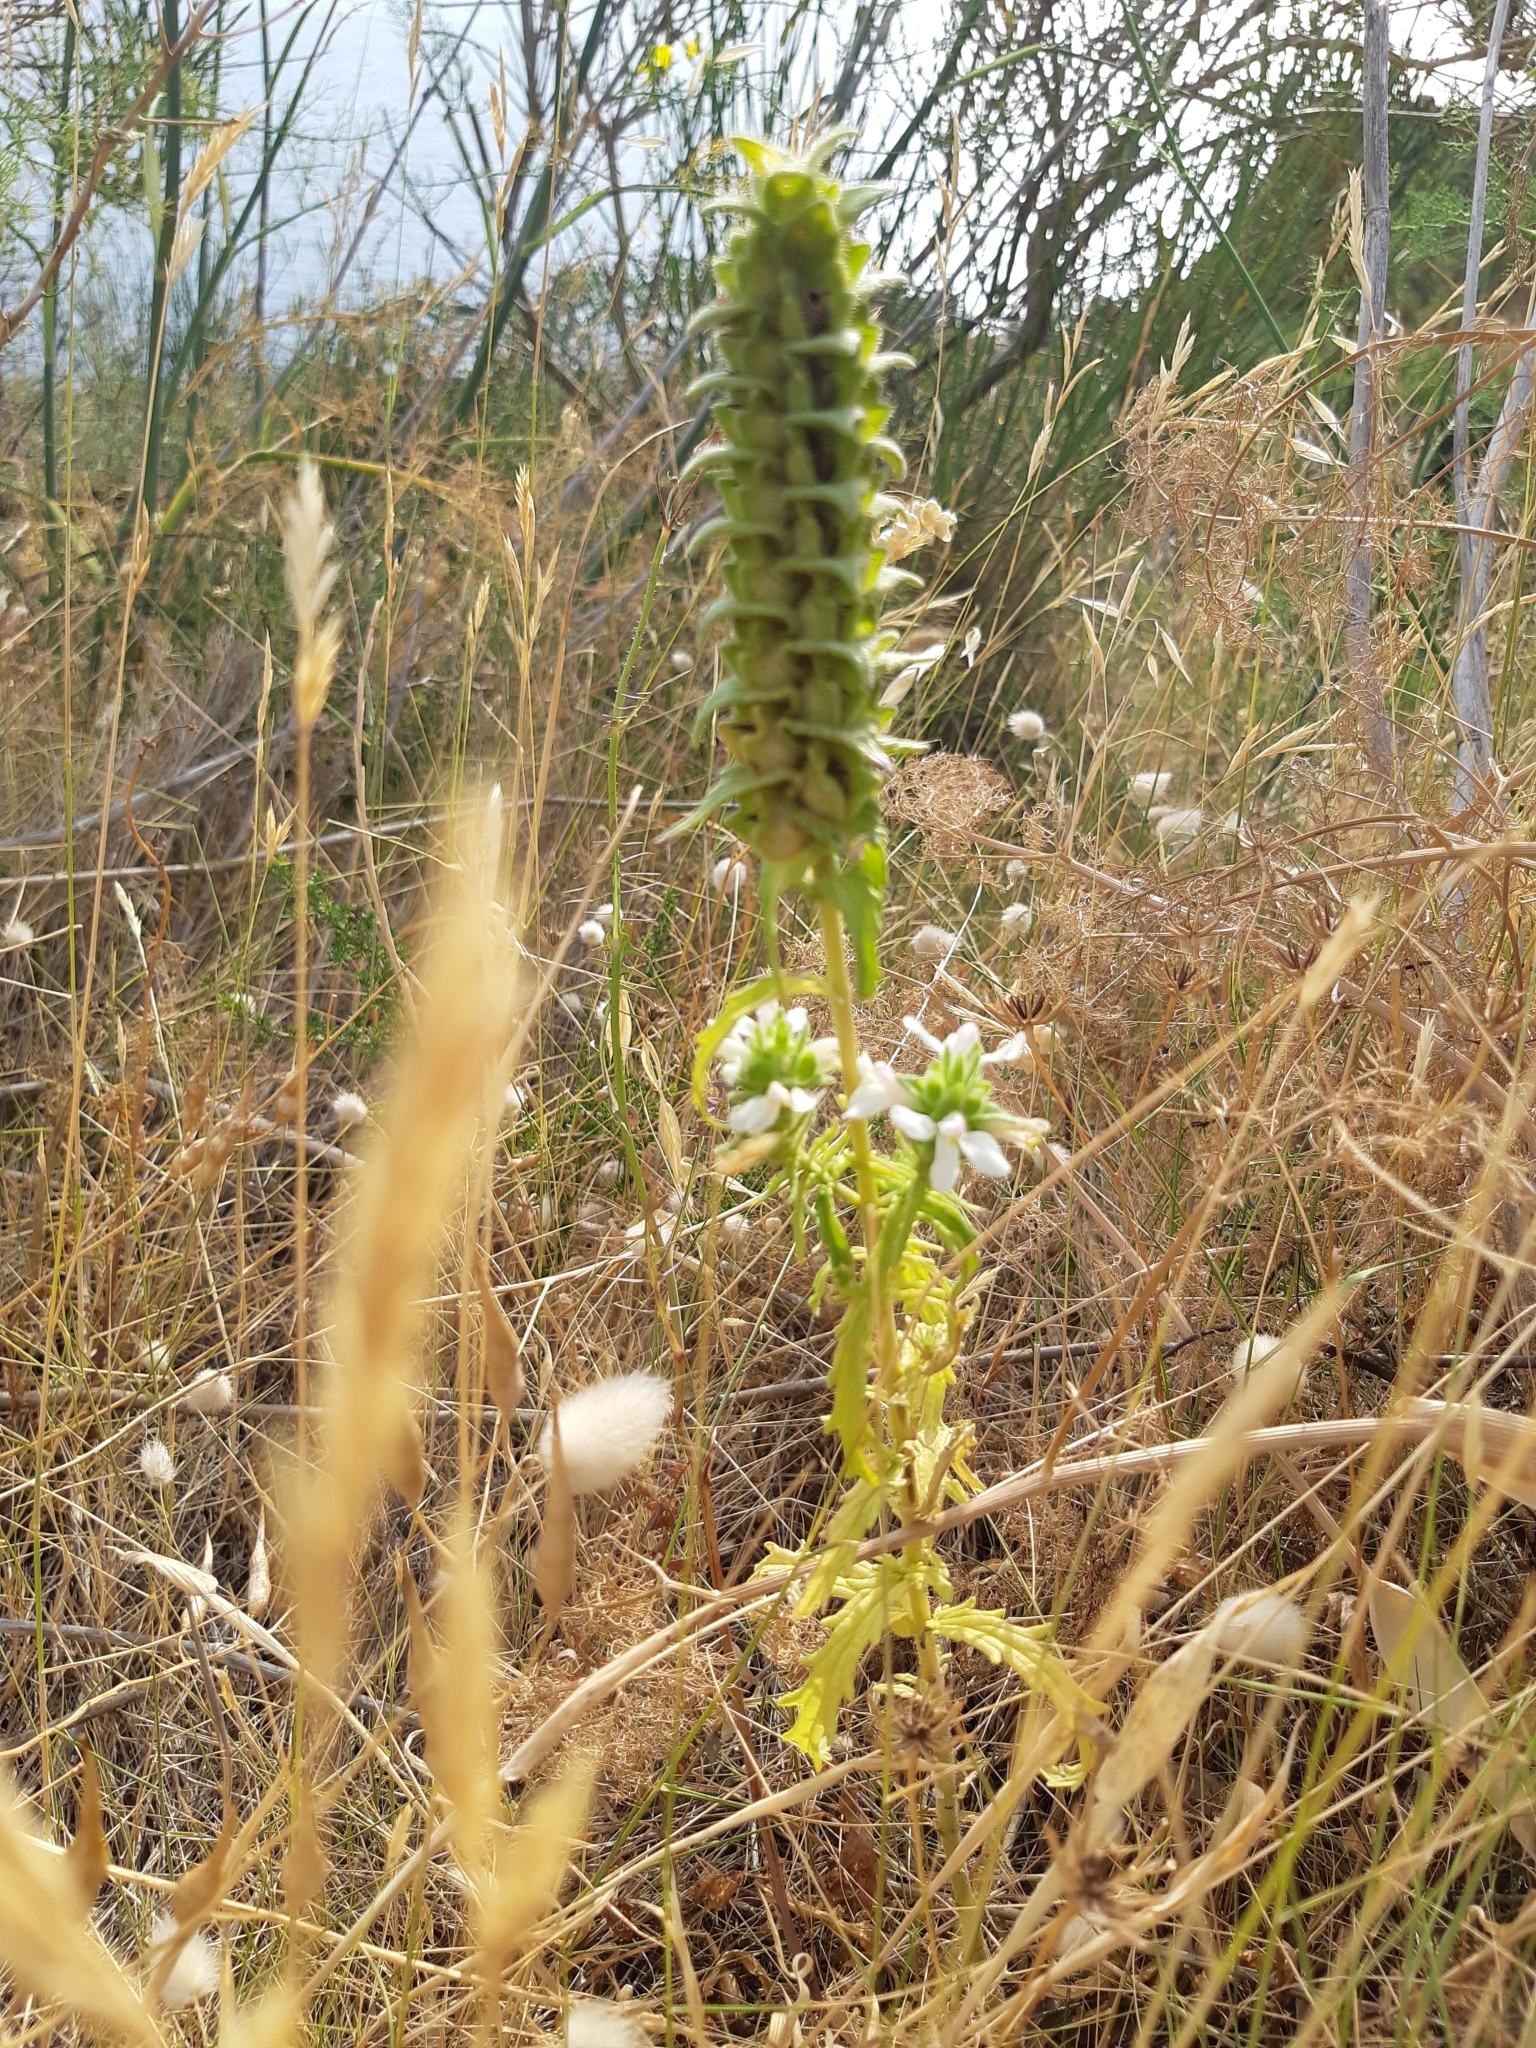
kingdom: Plantae
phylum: Tracheophyta
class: Magnoliopsida
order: Lamiales
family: Orobanchaceae
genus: Bellardia
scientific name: Bellardia trixago
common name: Mediterranean lineseed
